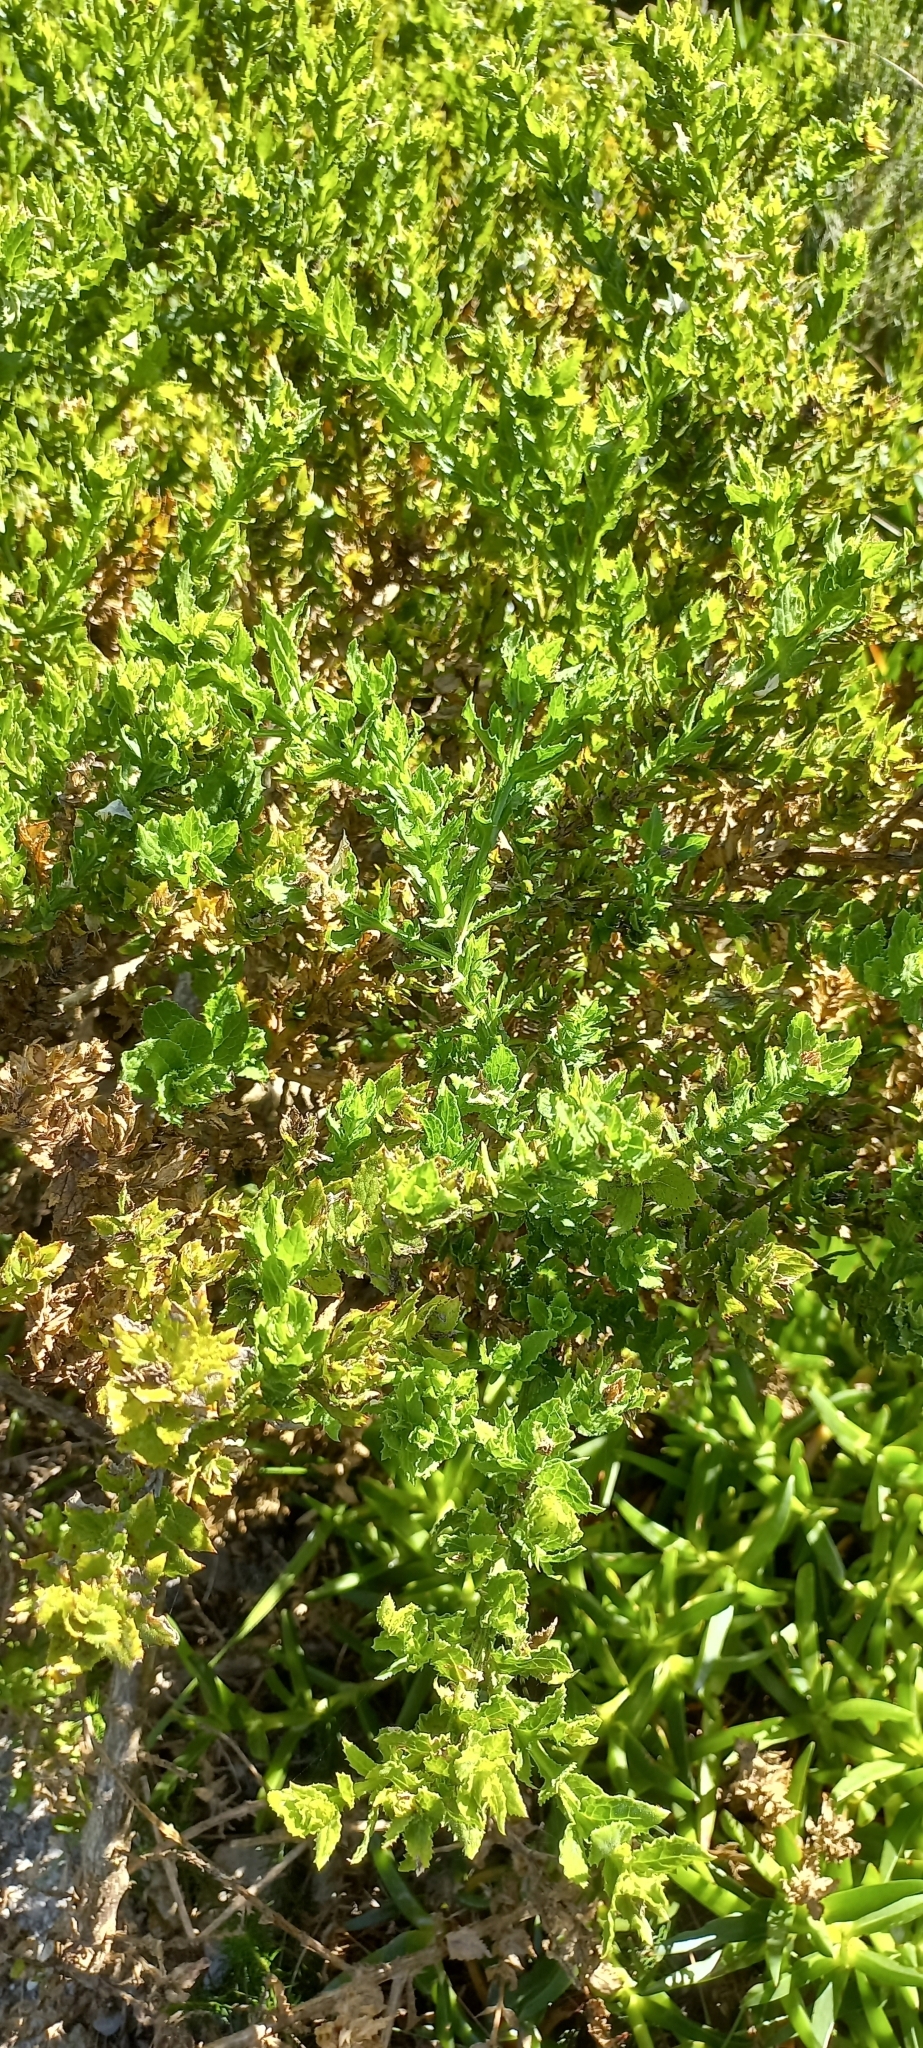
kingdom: Plantae
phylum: Tracheophyta
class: Magnoliopsida
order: Lamiales
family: Scrophulariaceae
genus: Oftia
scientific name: Oftia africana
